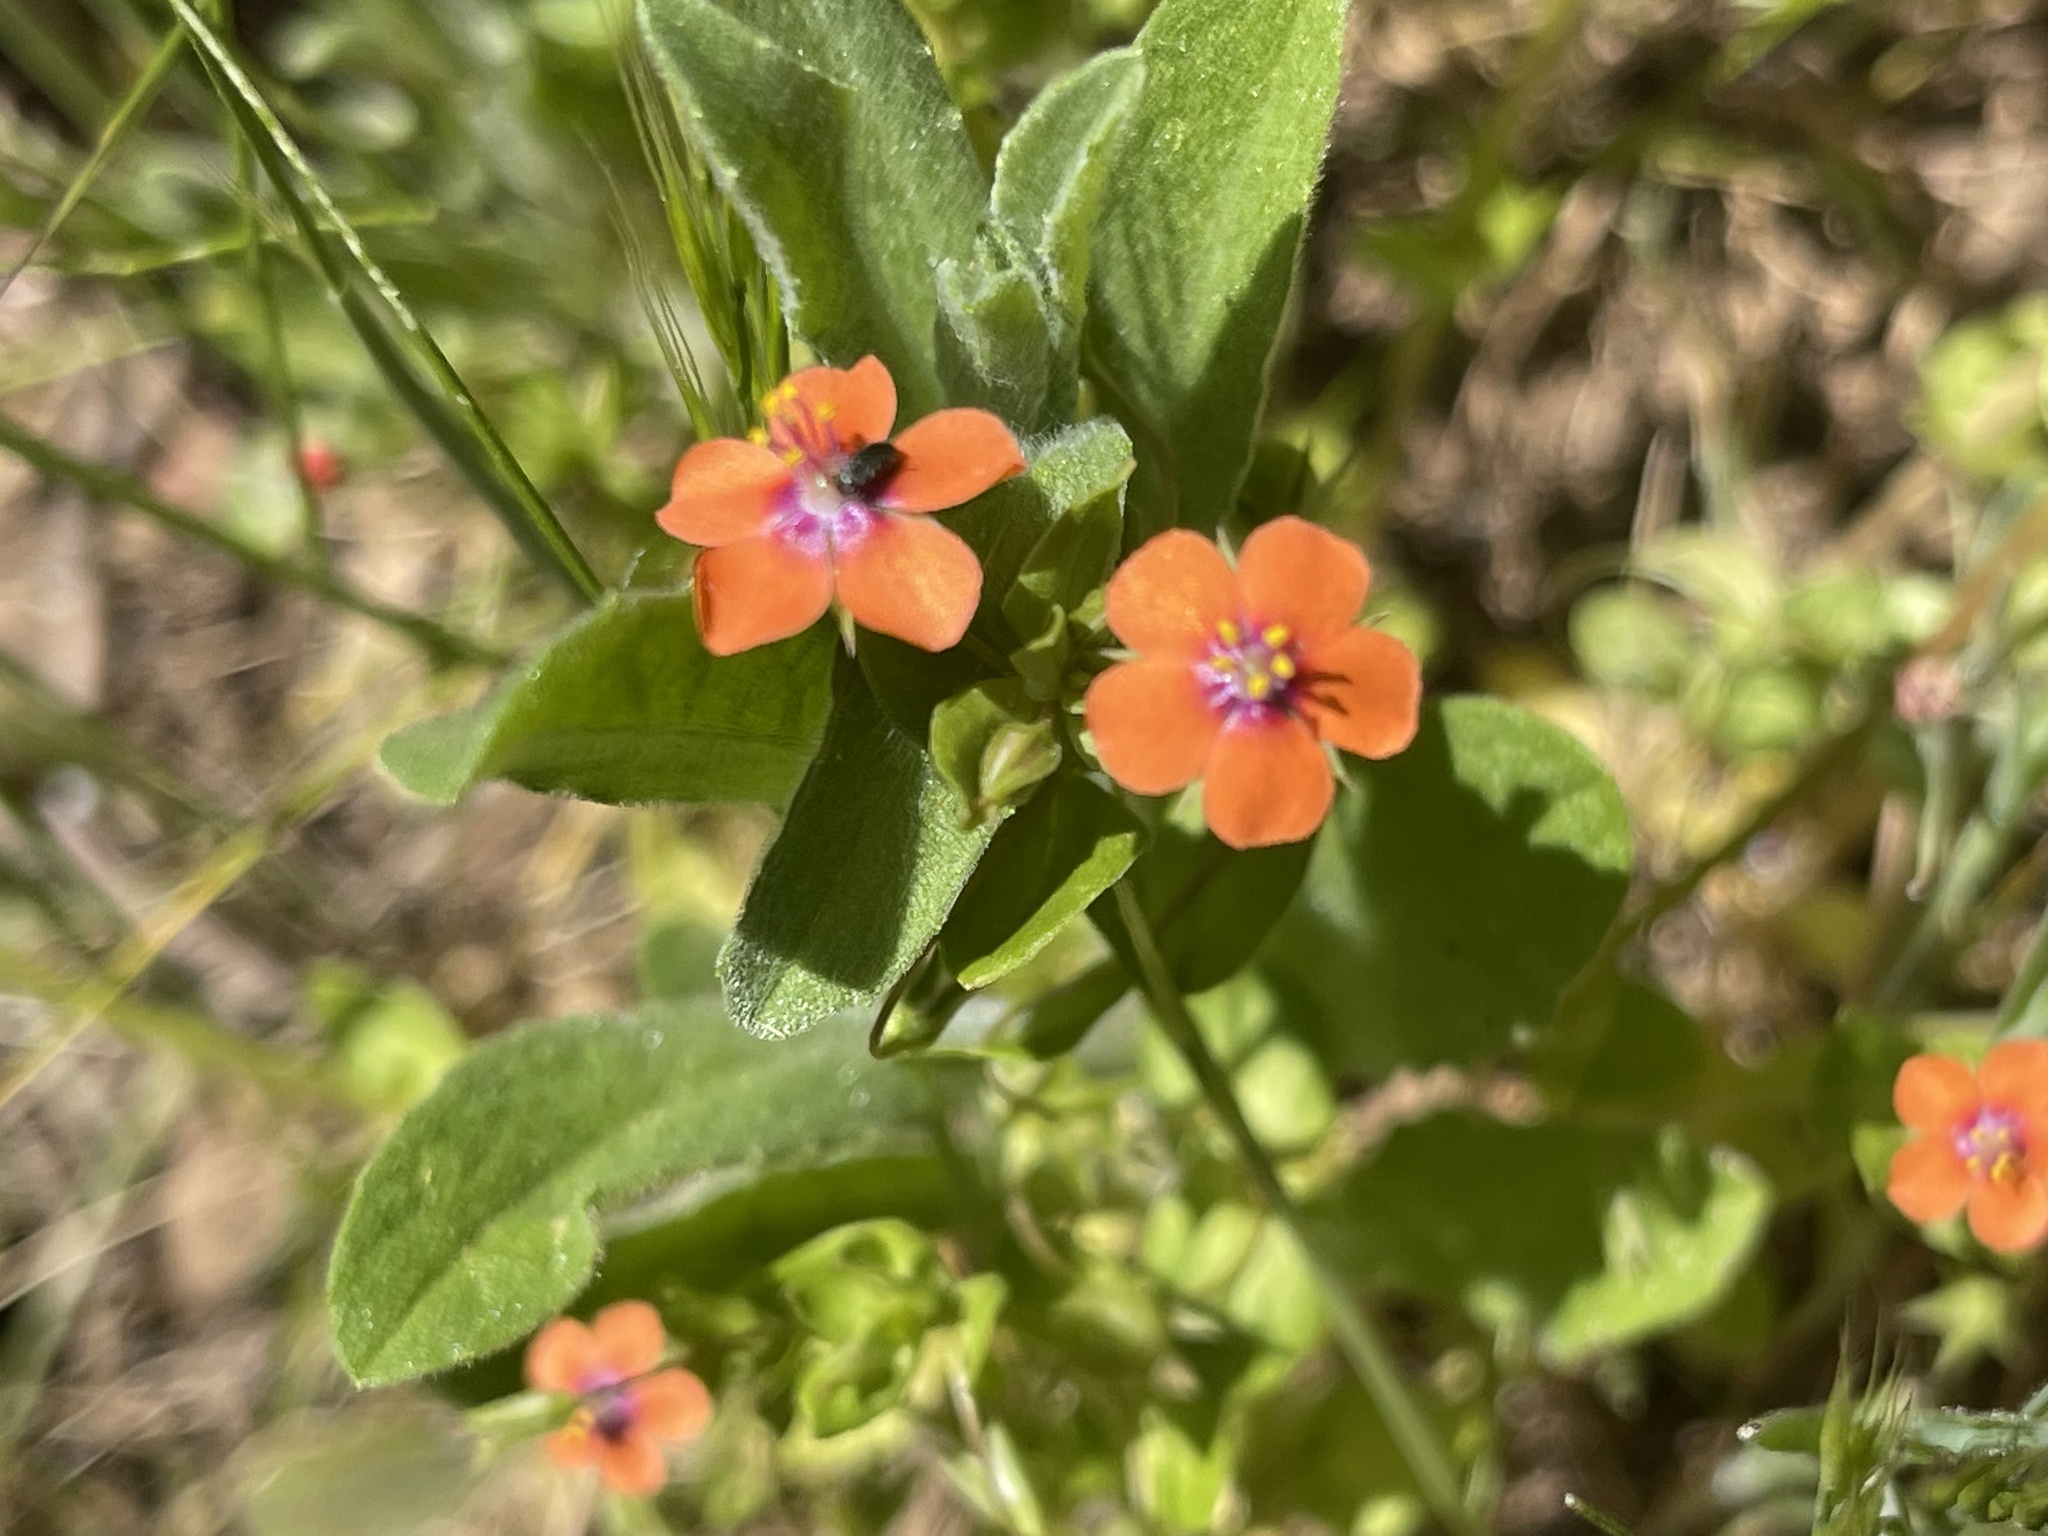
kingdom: Plantae
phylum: Tracheophyta
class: Magnoliopsida
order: Ericales
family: Primulaceae
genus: Lysimachia
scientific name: Lysimachia arvensis
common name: Scarlet pimpernel
